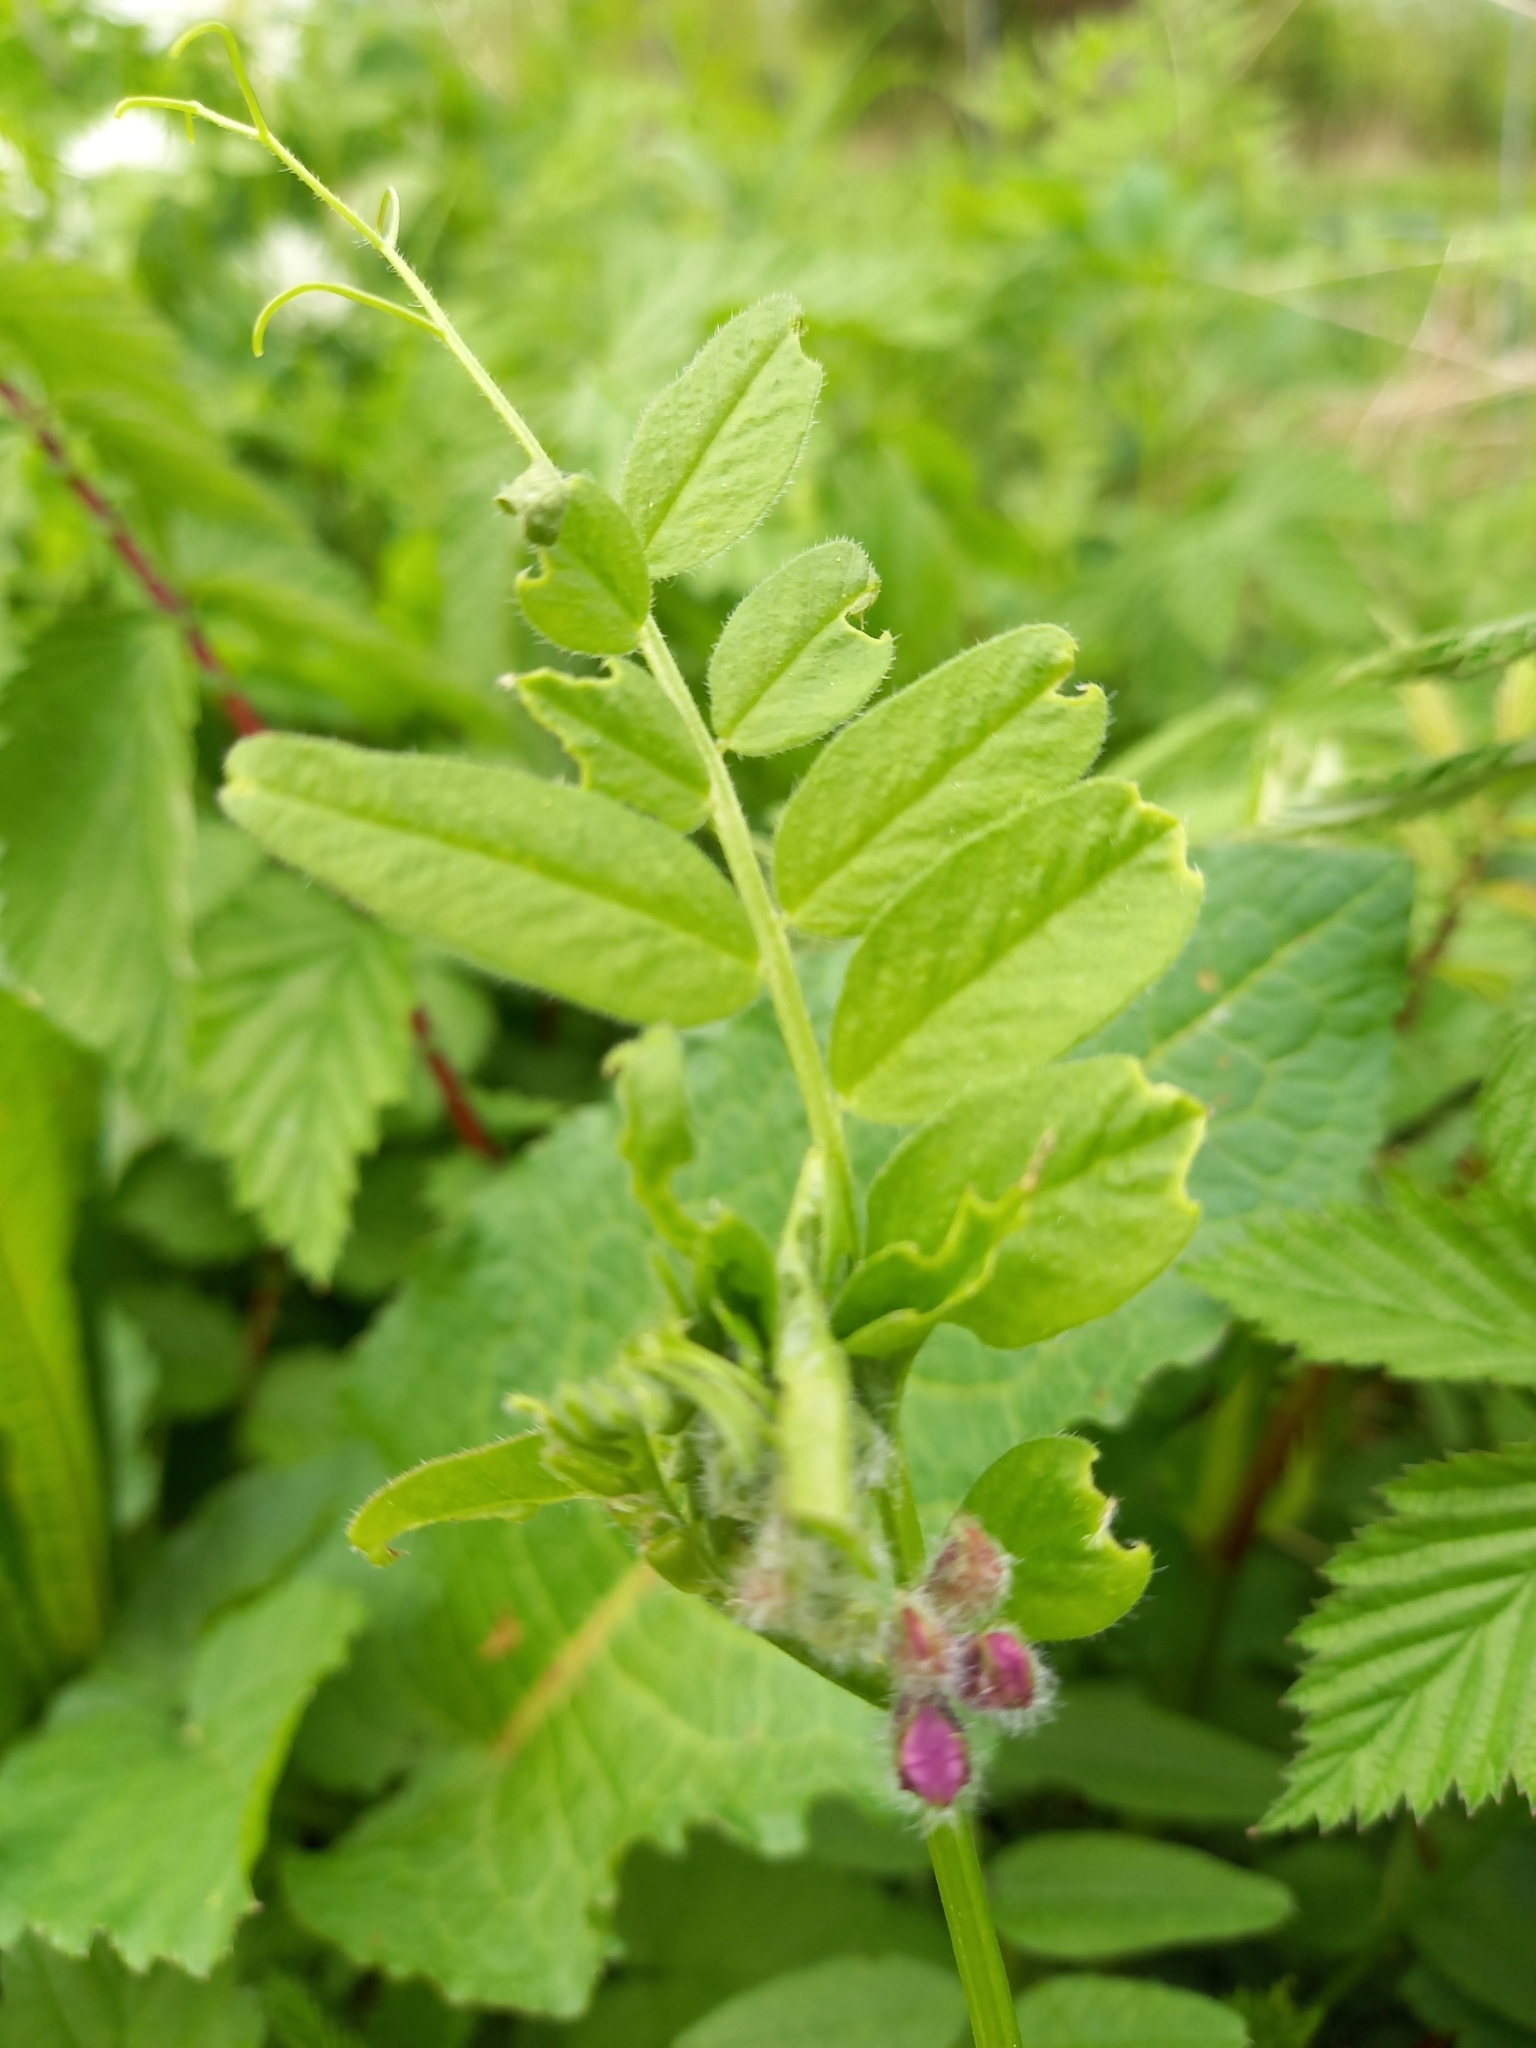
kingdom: Plantae
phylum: Tracheophyta
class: Magnoliopsida
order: Fabales
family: Fabaceae
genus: Vicia
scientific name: Vicia sepium
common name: Bush vetch
